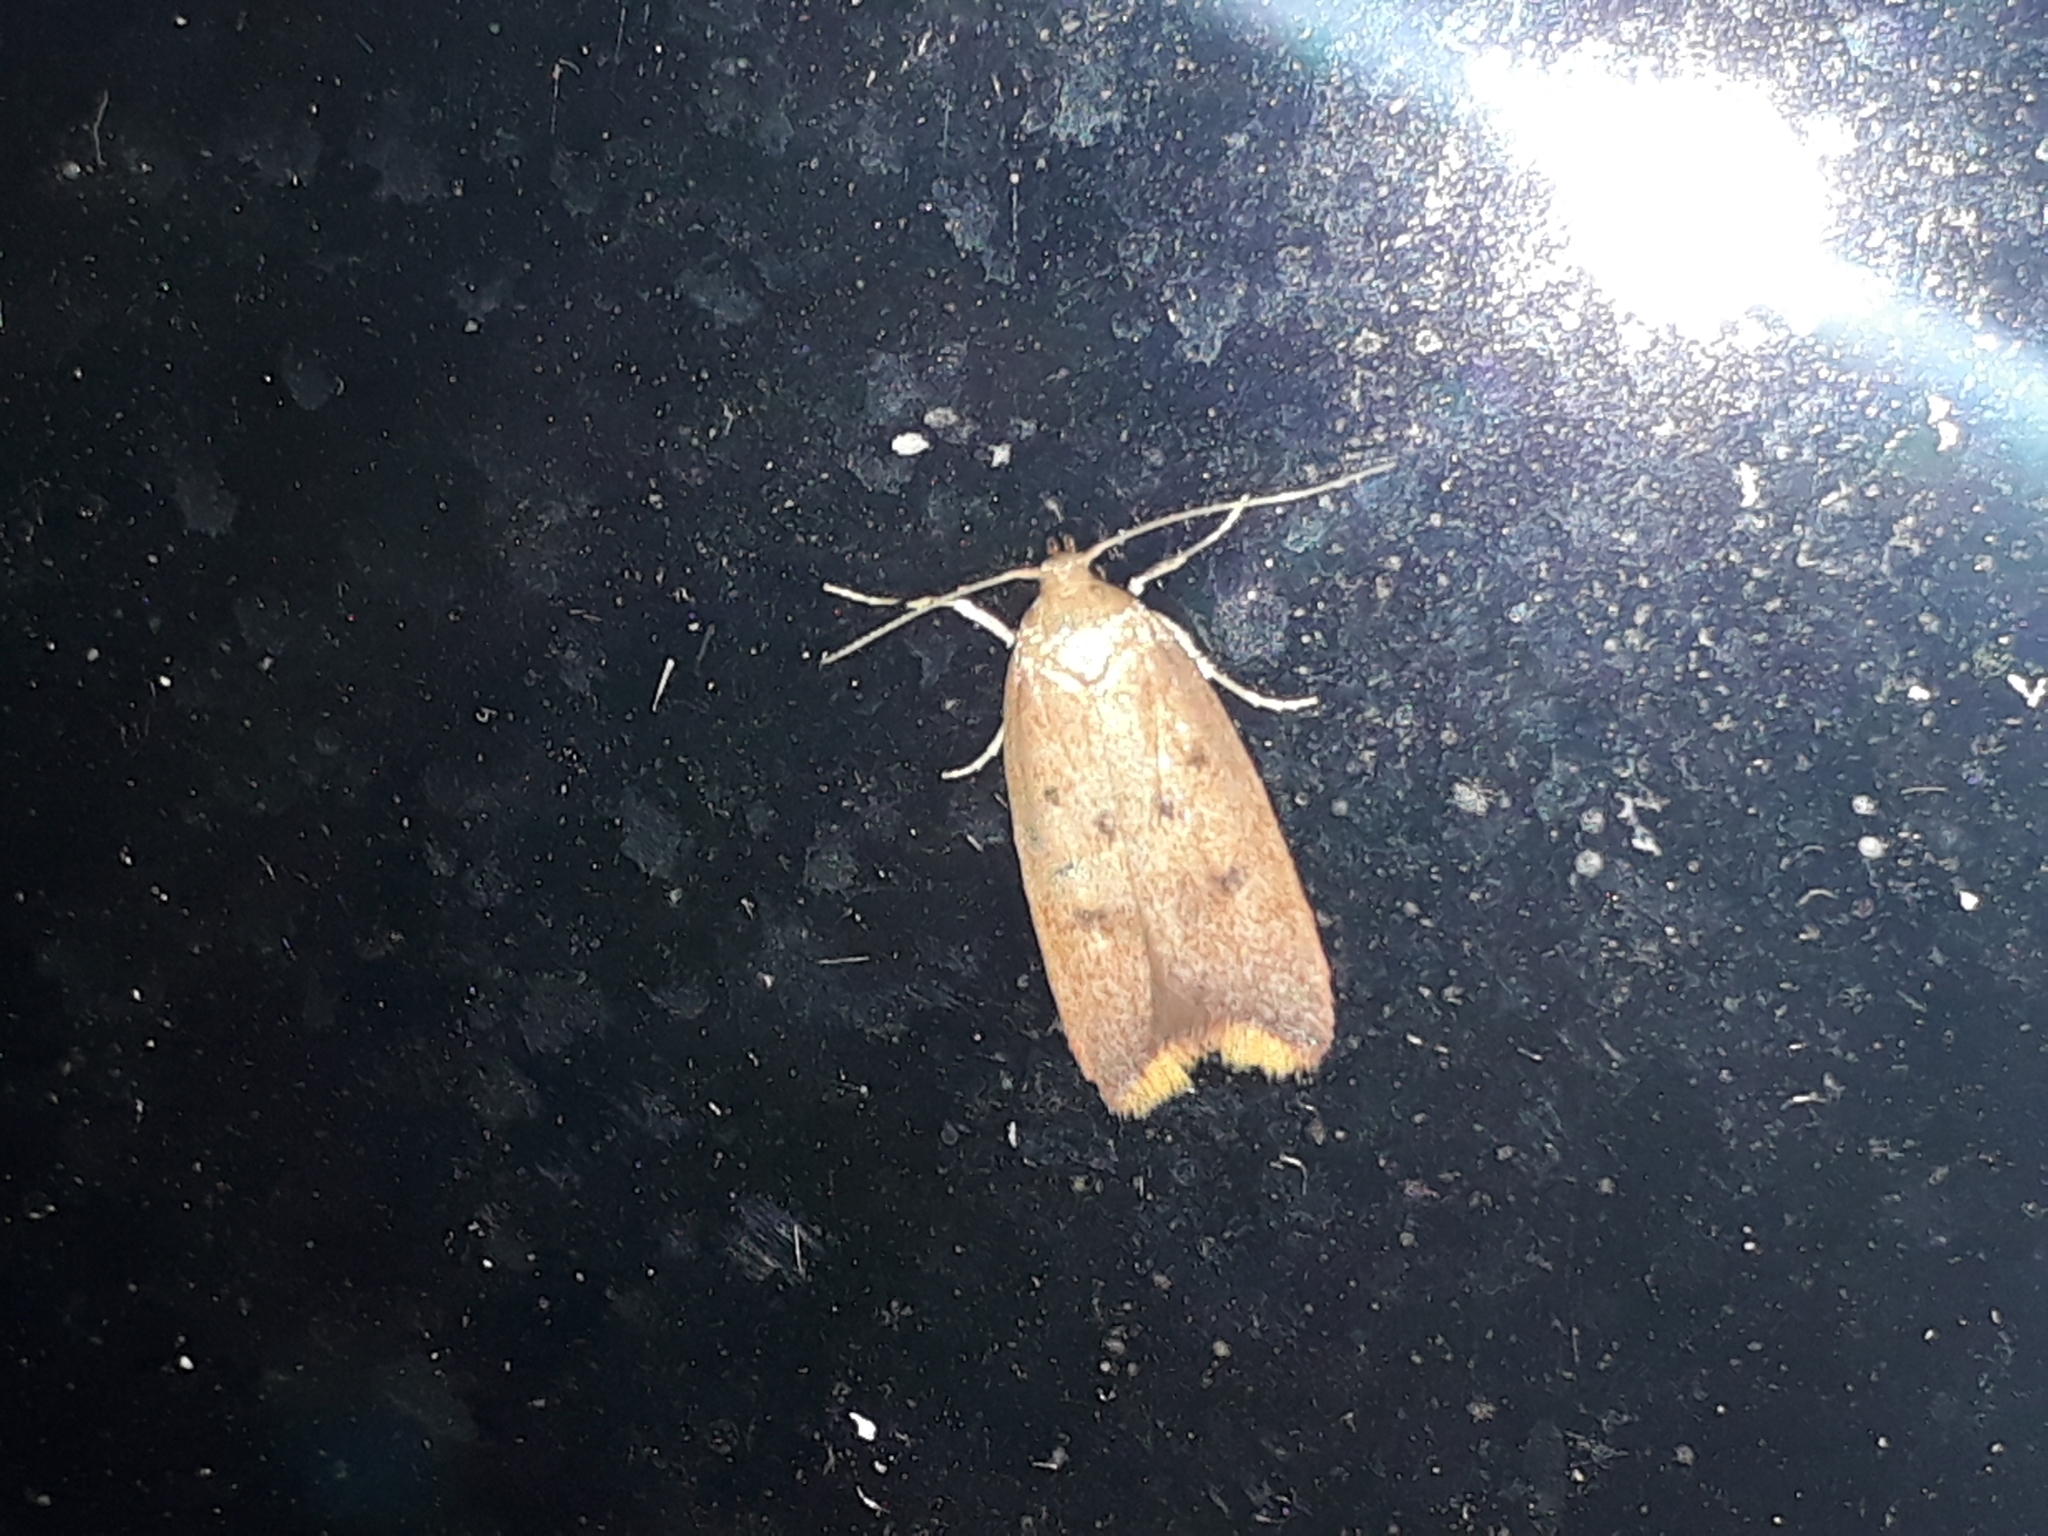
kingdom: Animalia
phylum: Arthropoda
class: Insecta
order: Lepidoptera
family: Oecophoridae
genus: Tachystola
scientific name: Tachystola acroxantha
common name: Ruddy streak
